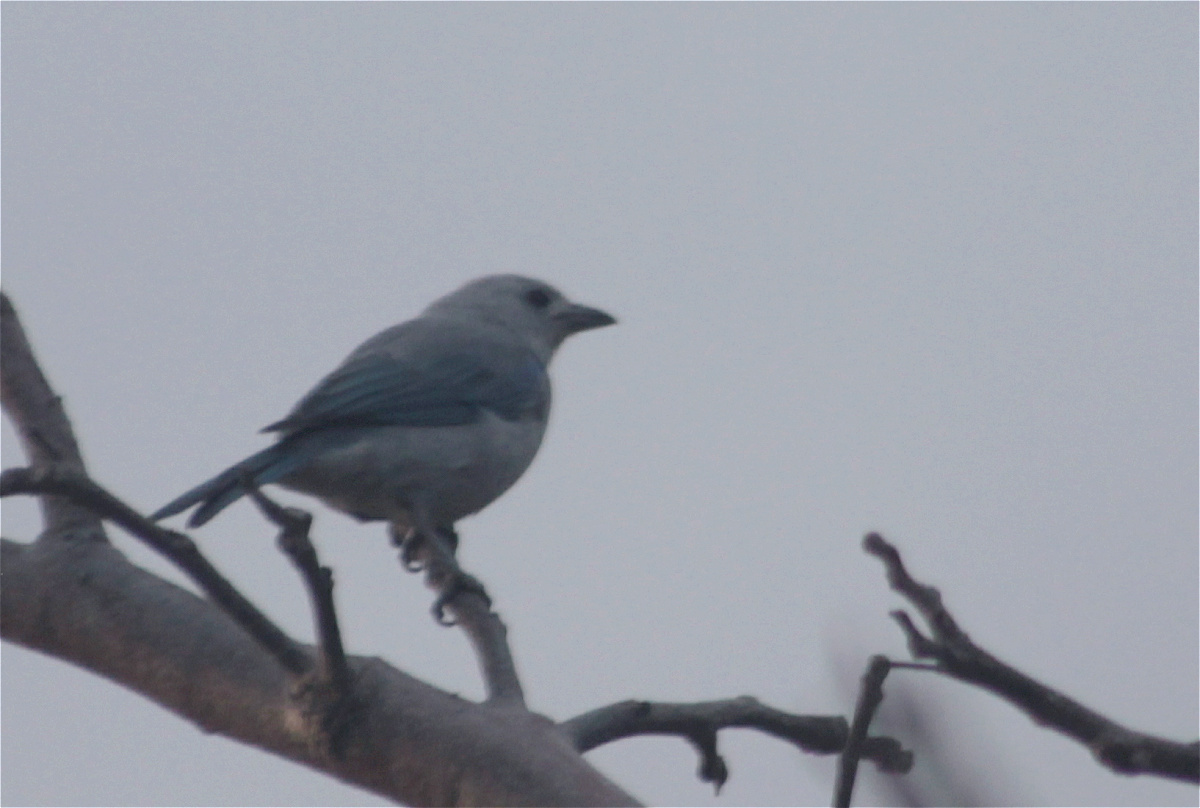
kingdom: Animalia
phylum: Chordata
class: Aves
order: Passeriformes
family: Thraupidae
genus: Thraupis
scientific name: Thraupis episcopus
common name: Blue-grey tanager
